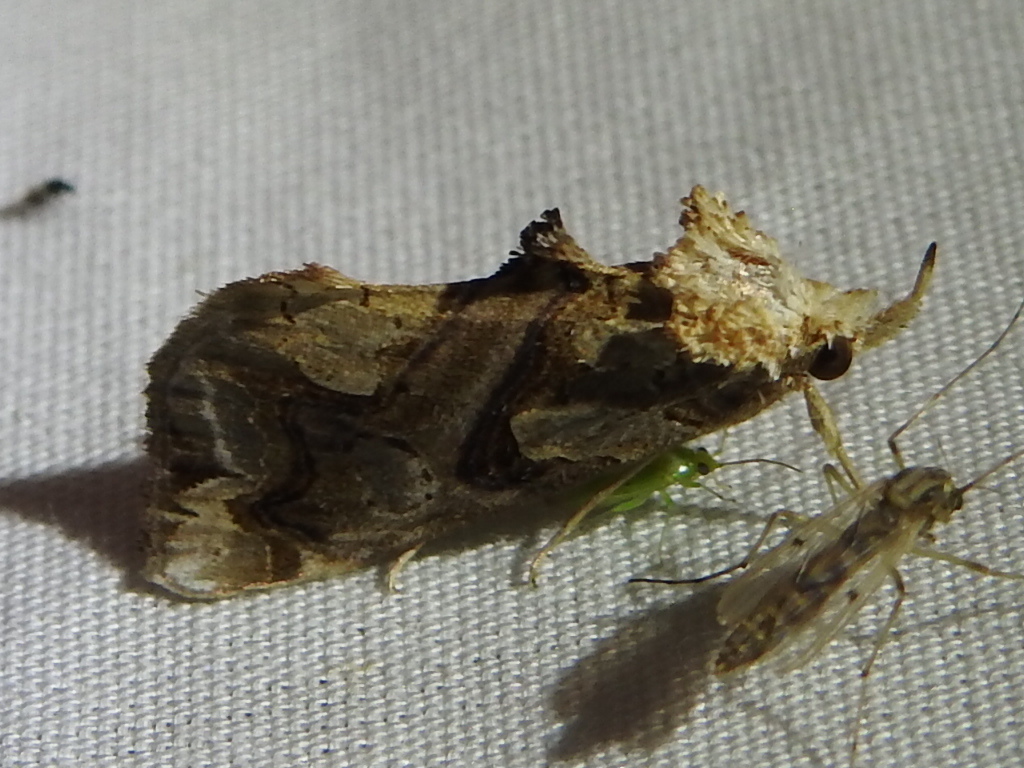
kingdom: Animalia
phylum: Arthropoda
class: Insecta
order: Lepidoptera
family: Erebidae
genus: Plusiodonta
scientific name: Plusiodonta compressipalpis
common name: Moonseed moth
